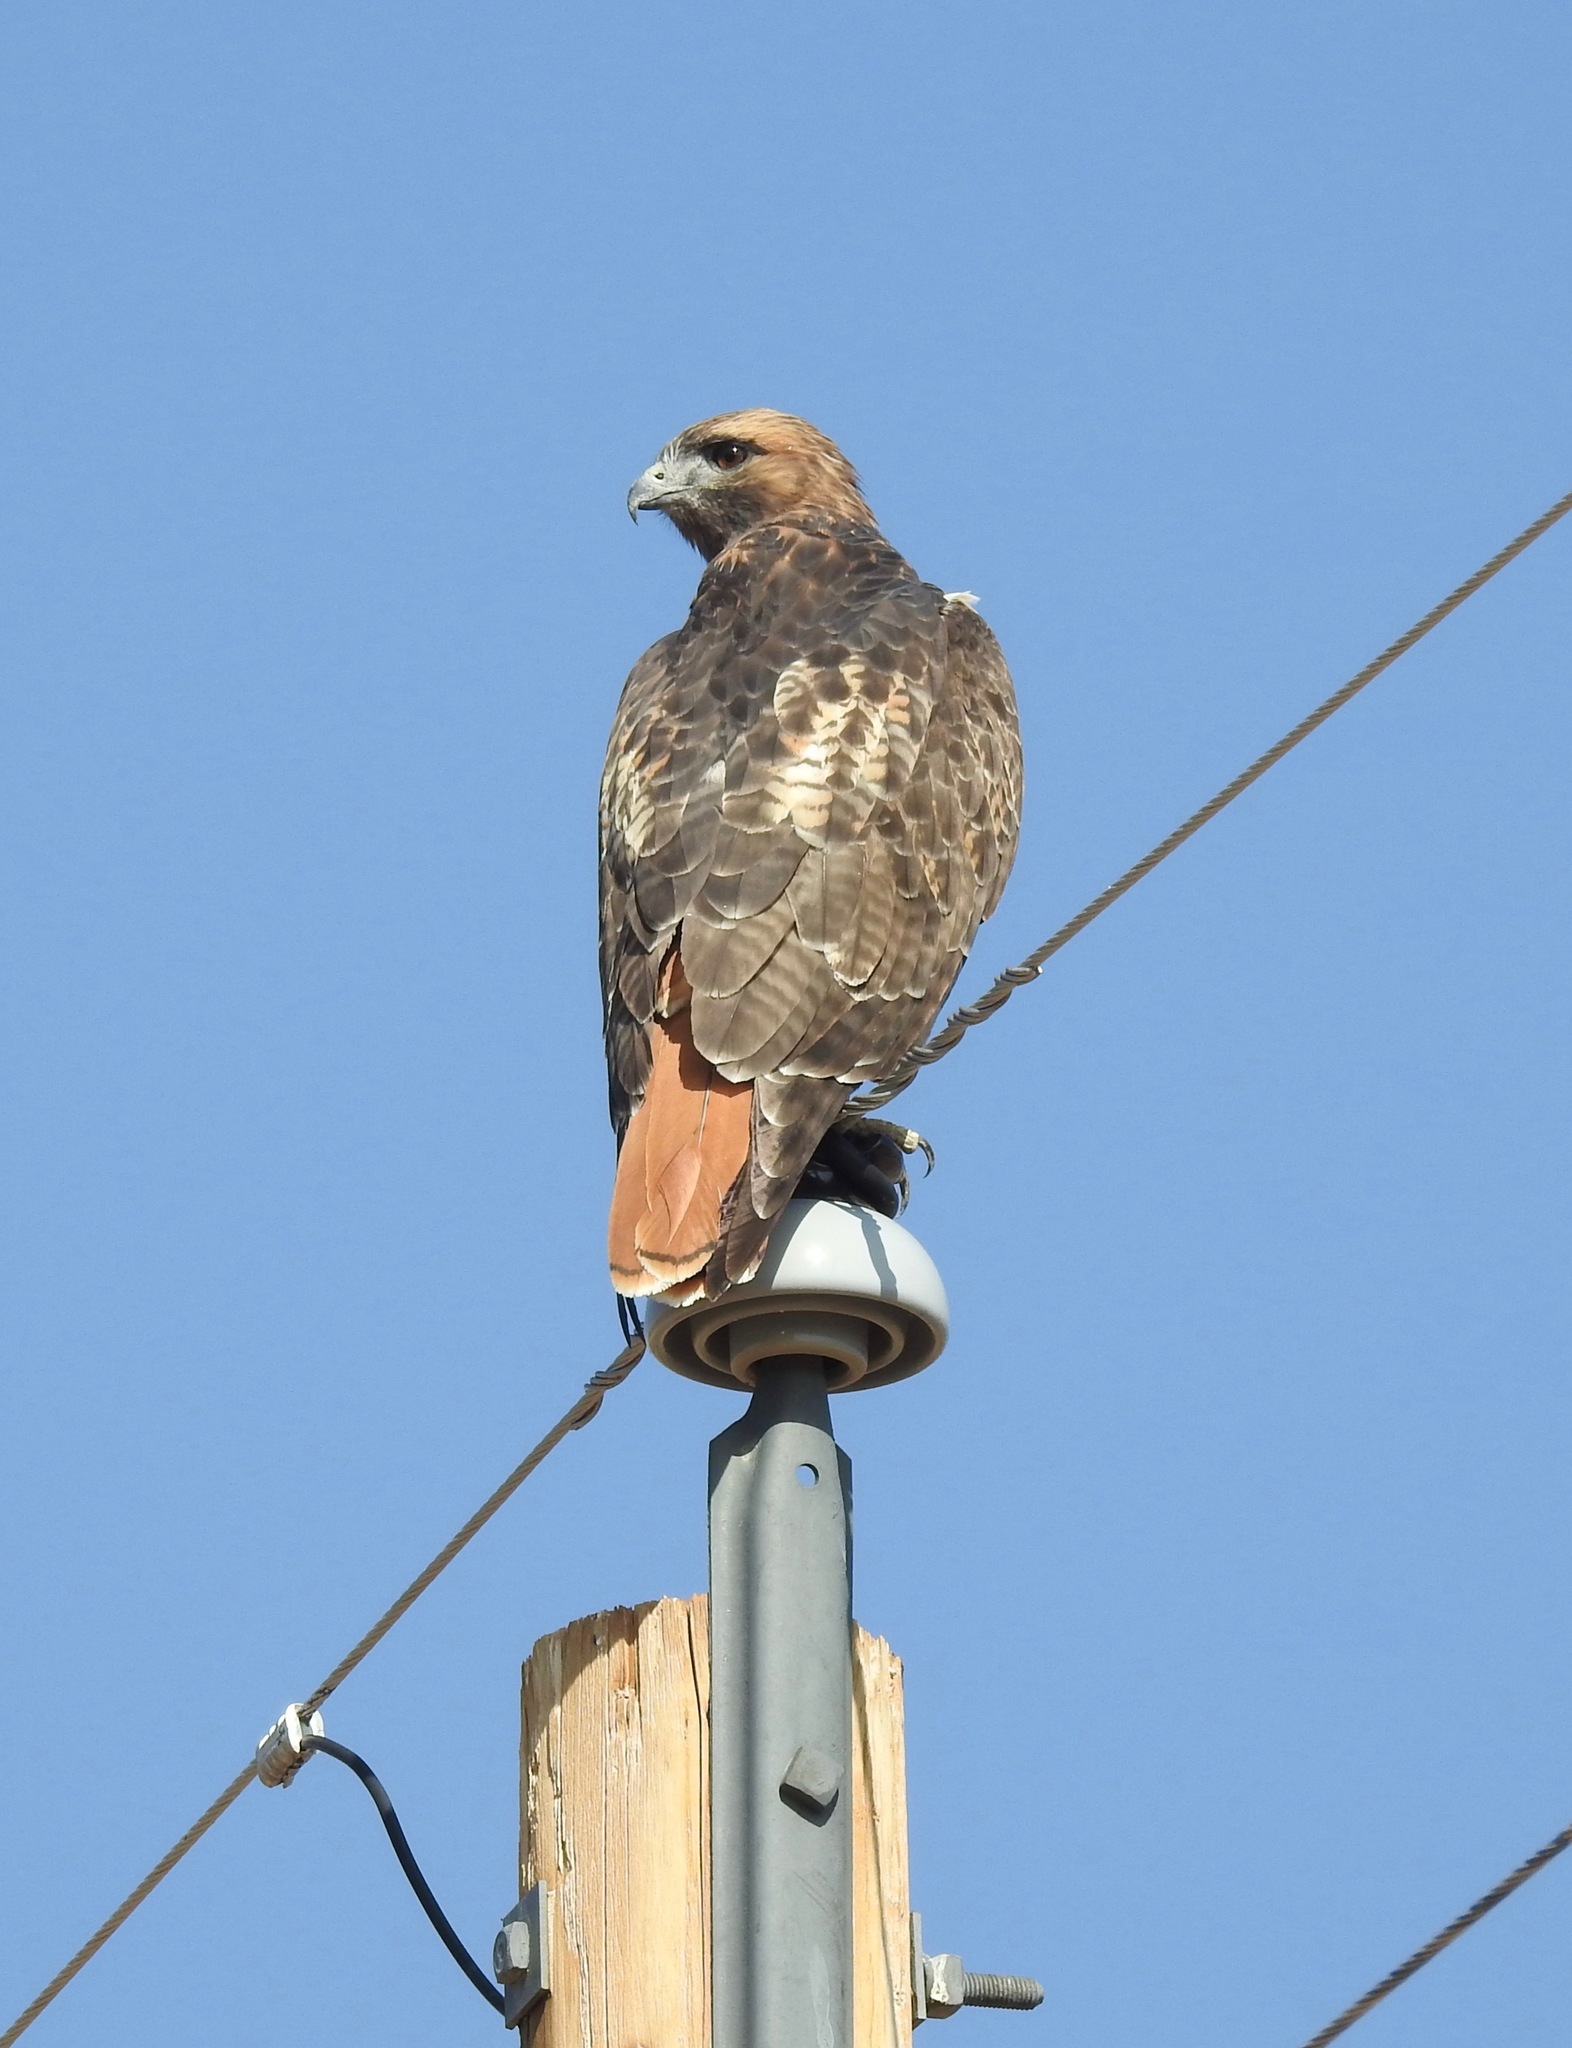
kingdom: Animalia
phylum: Chordata
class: Aves
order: Accipitriformes
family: Accipitridae
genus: Buteo
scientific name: Buteo jamaicensis
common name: Red-tailed hawk
